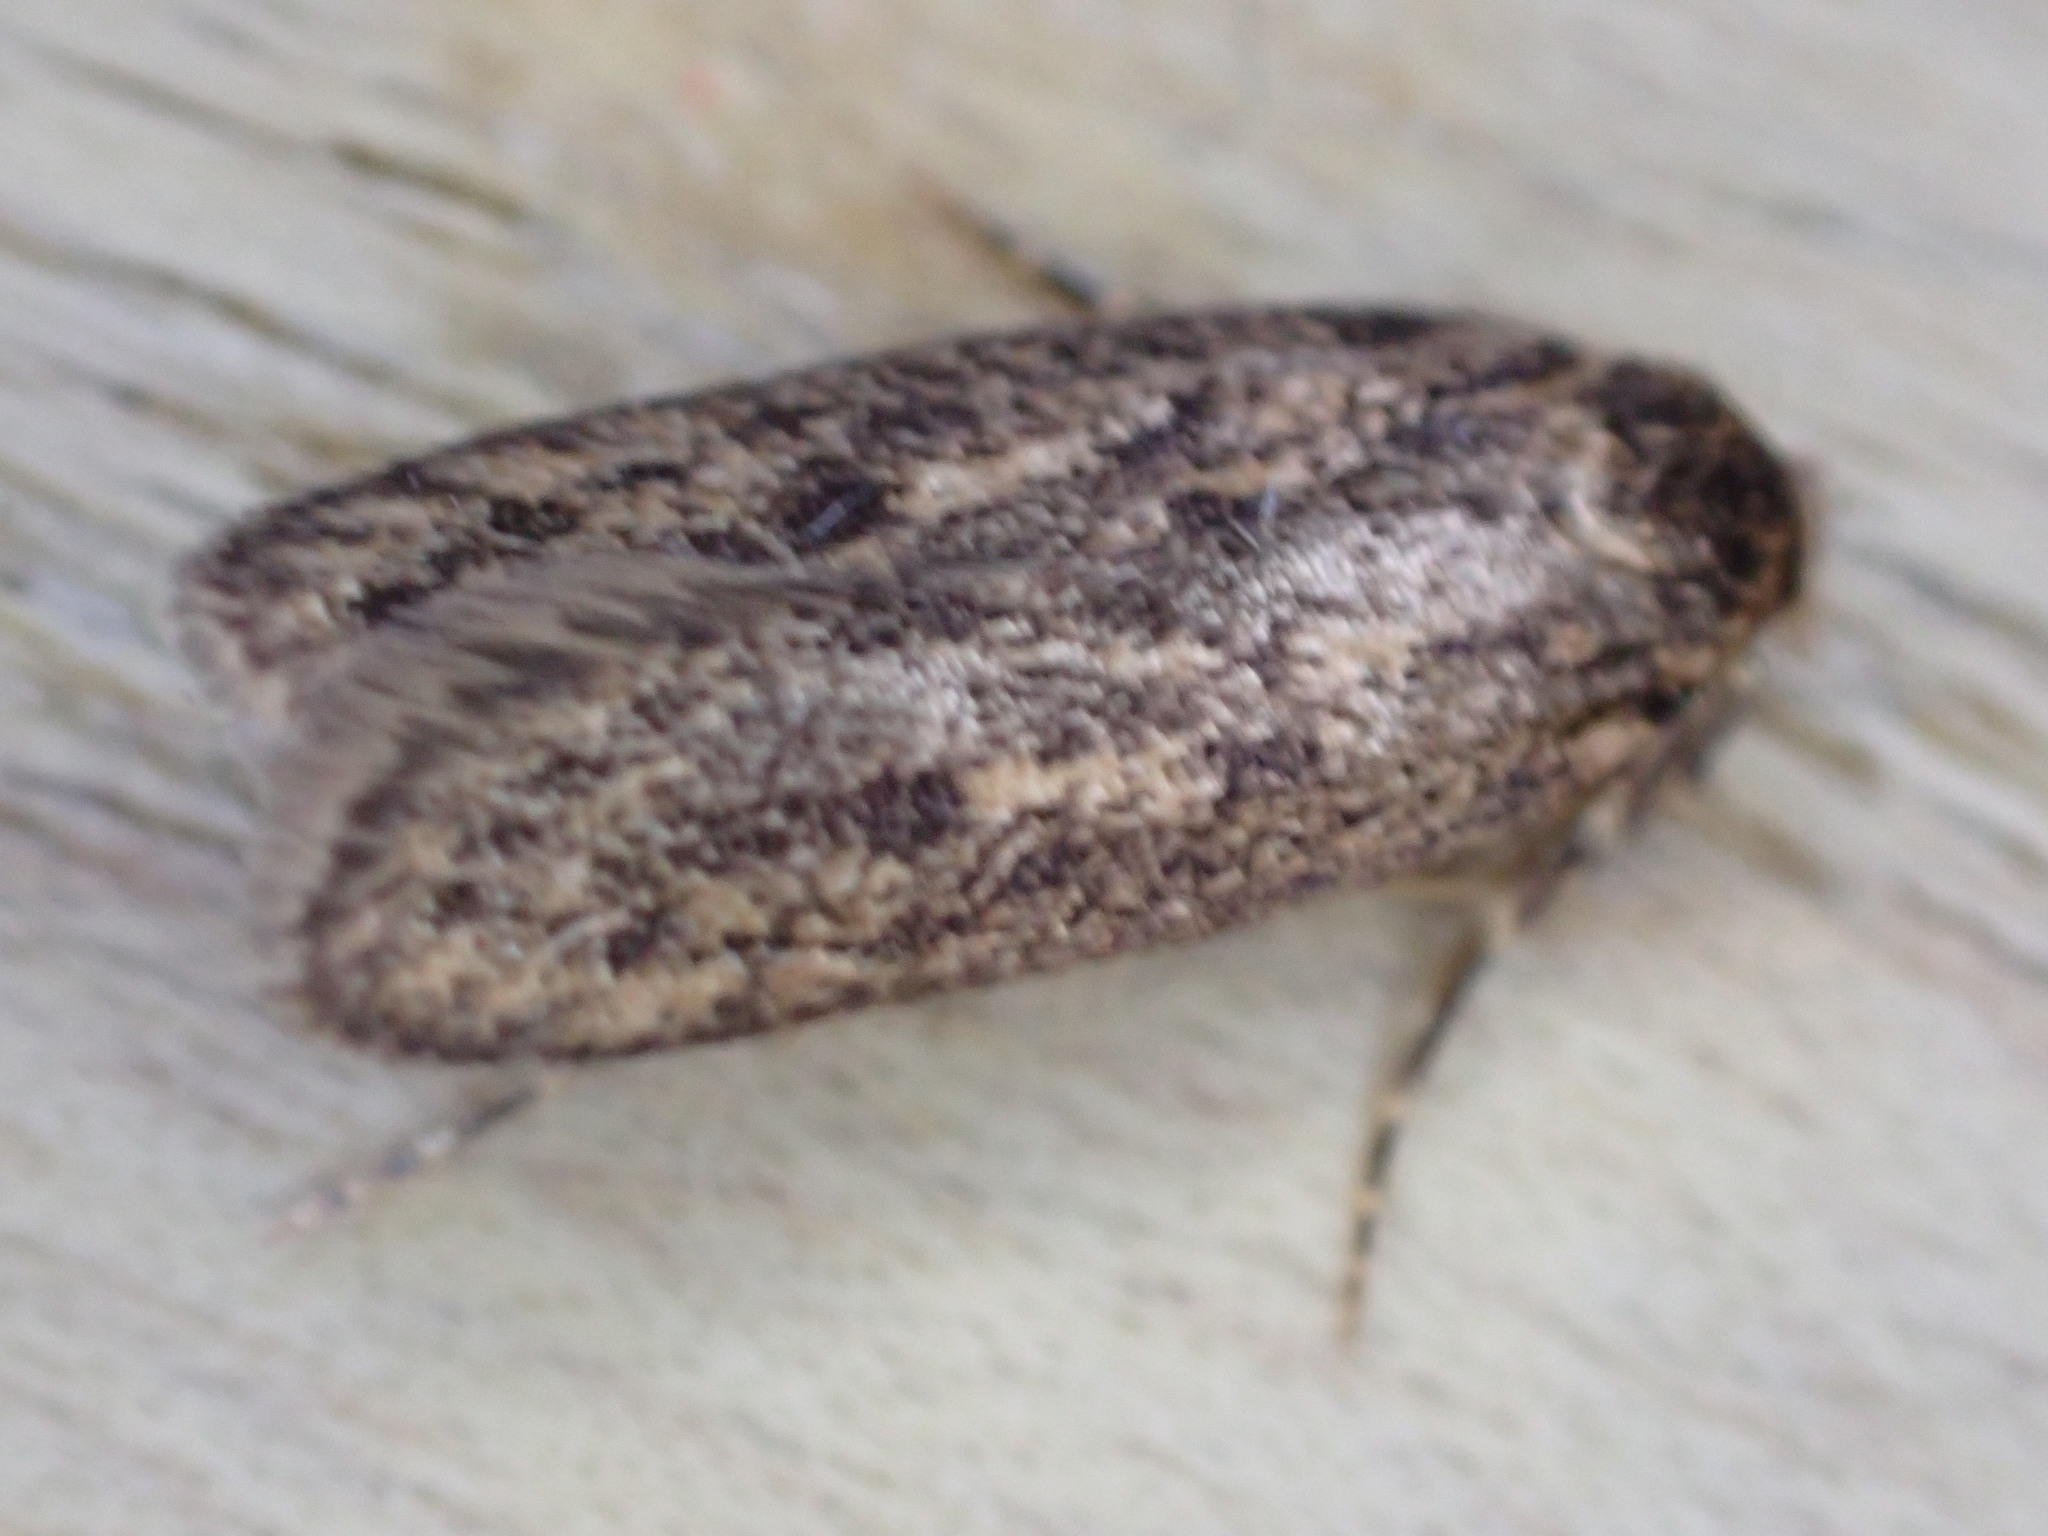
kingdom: Animalia
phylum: Arthropoda
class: Insecta
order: Lepidoptera
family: Oecophoridae
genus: Hofmannophila
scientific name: Hofmannophila pseudospretella
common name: Brown house moth
